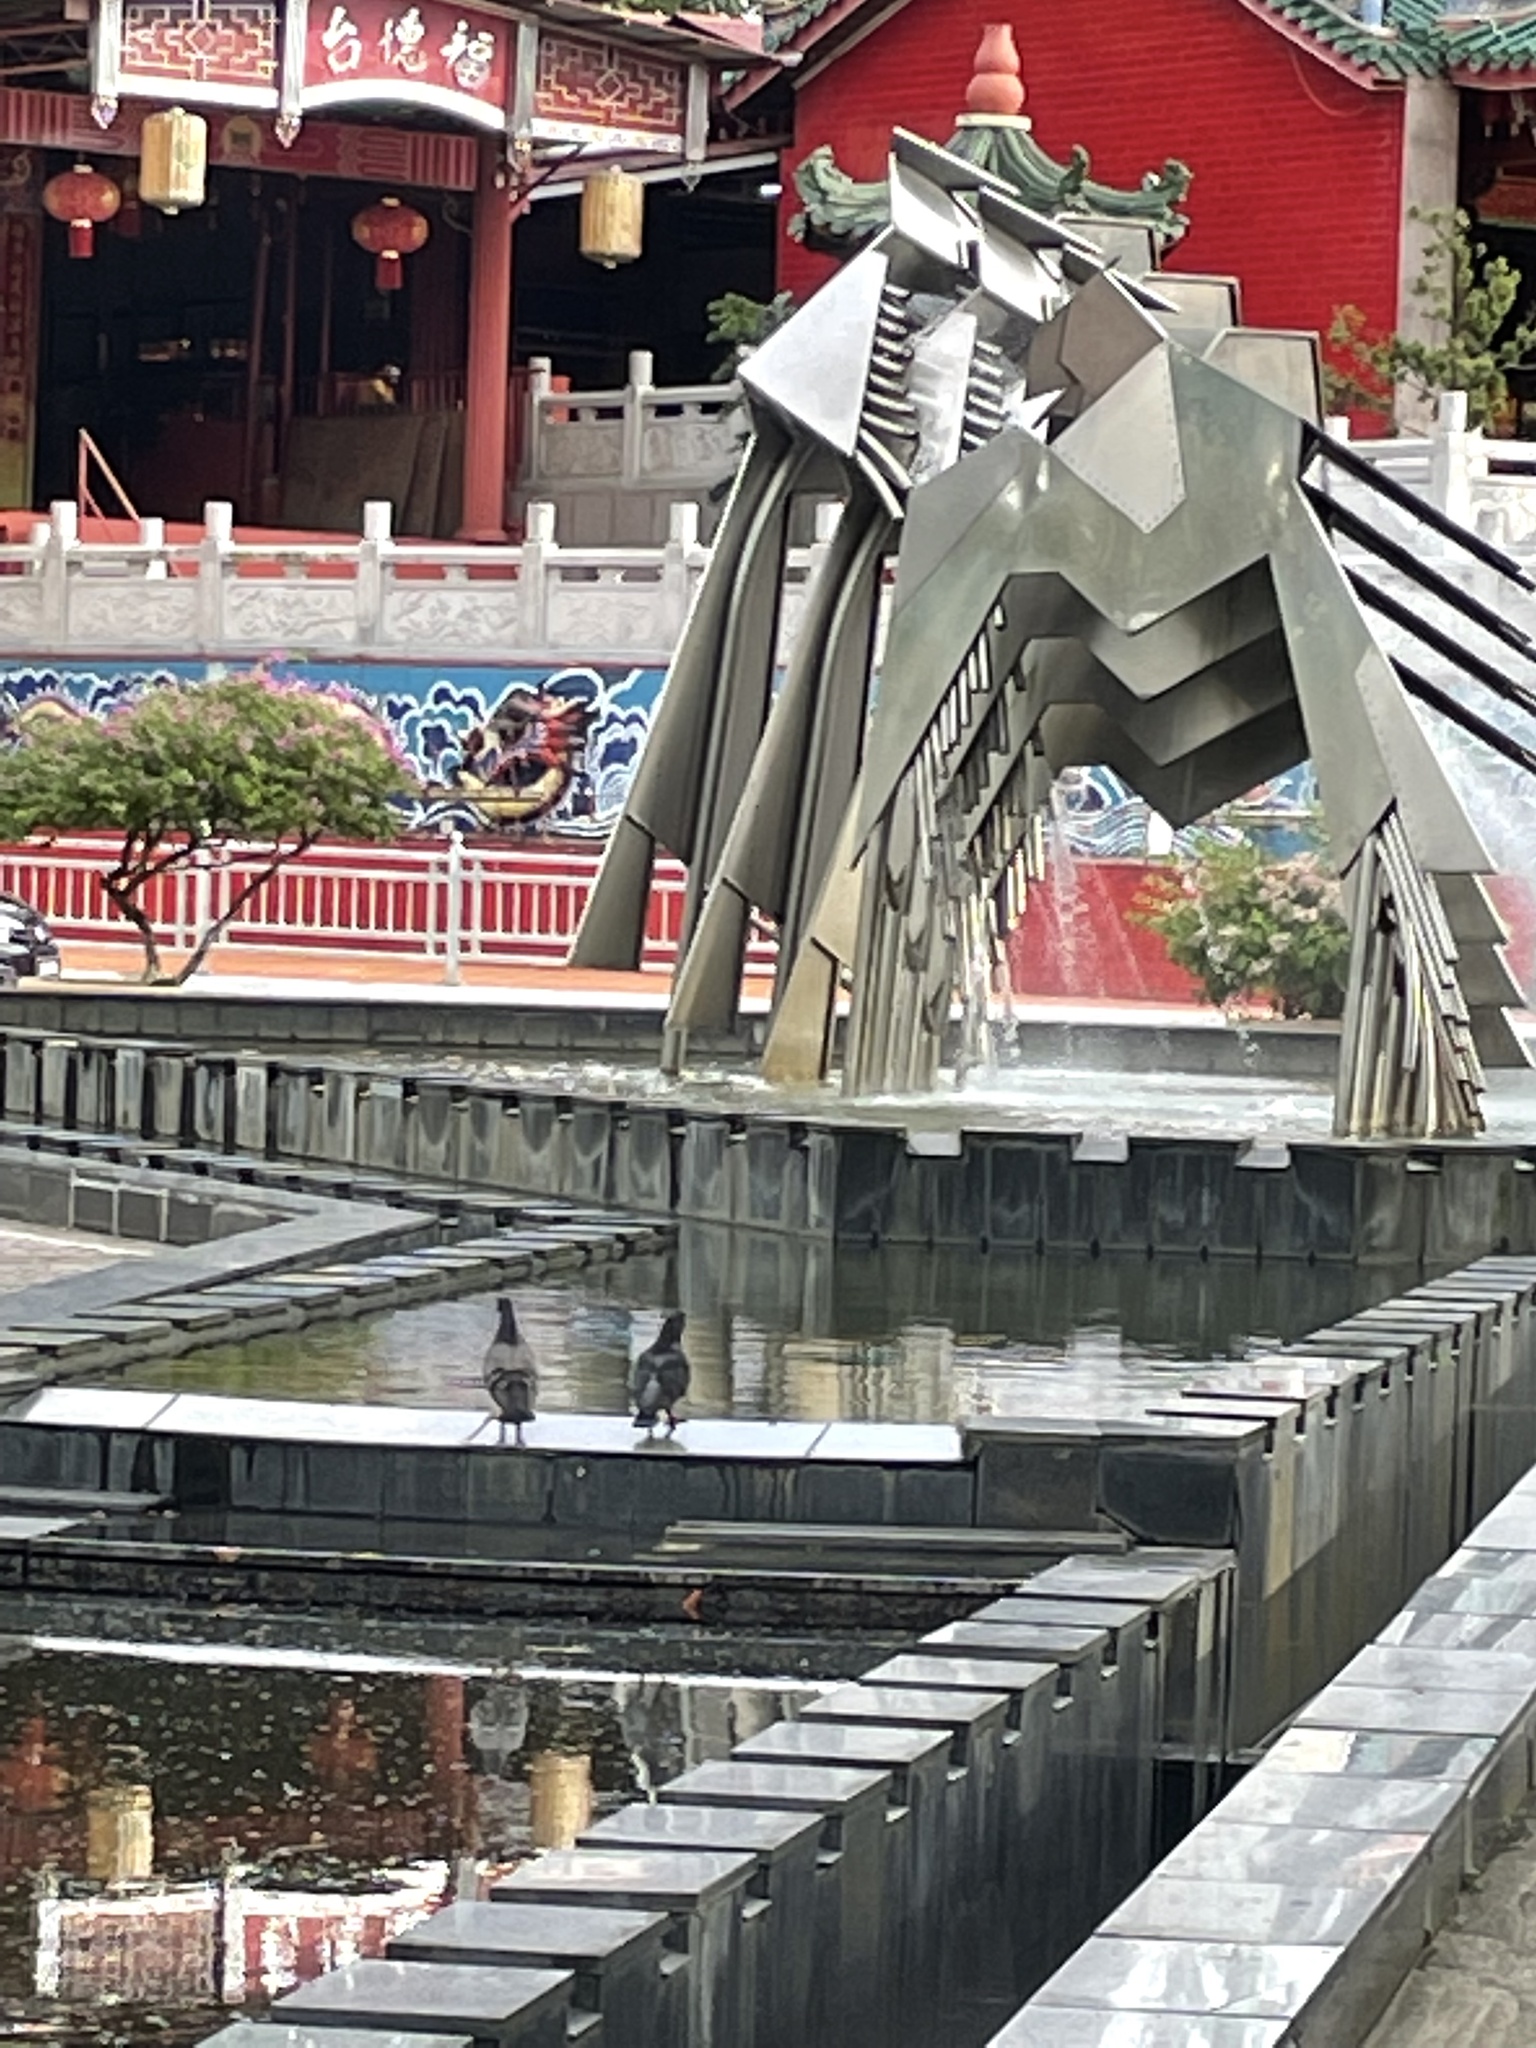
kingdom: Animalia
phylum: Chordata
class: Aves
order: Columbiformes
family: Columbidae
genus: Columba
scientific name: Columba livia
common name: Rock pigeon
